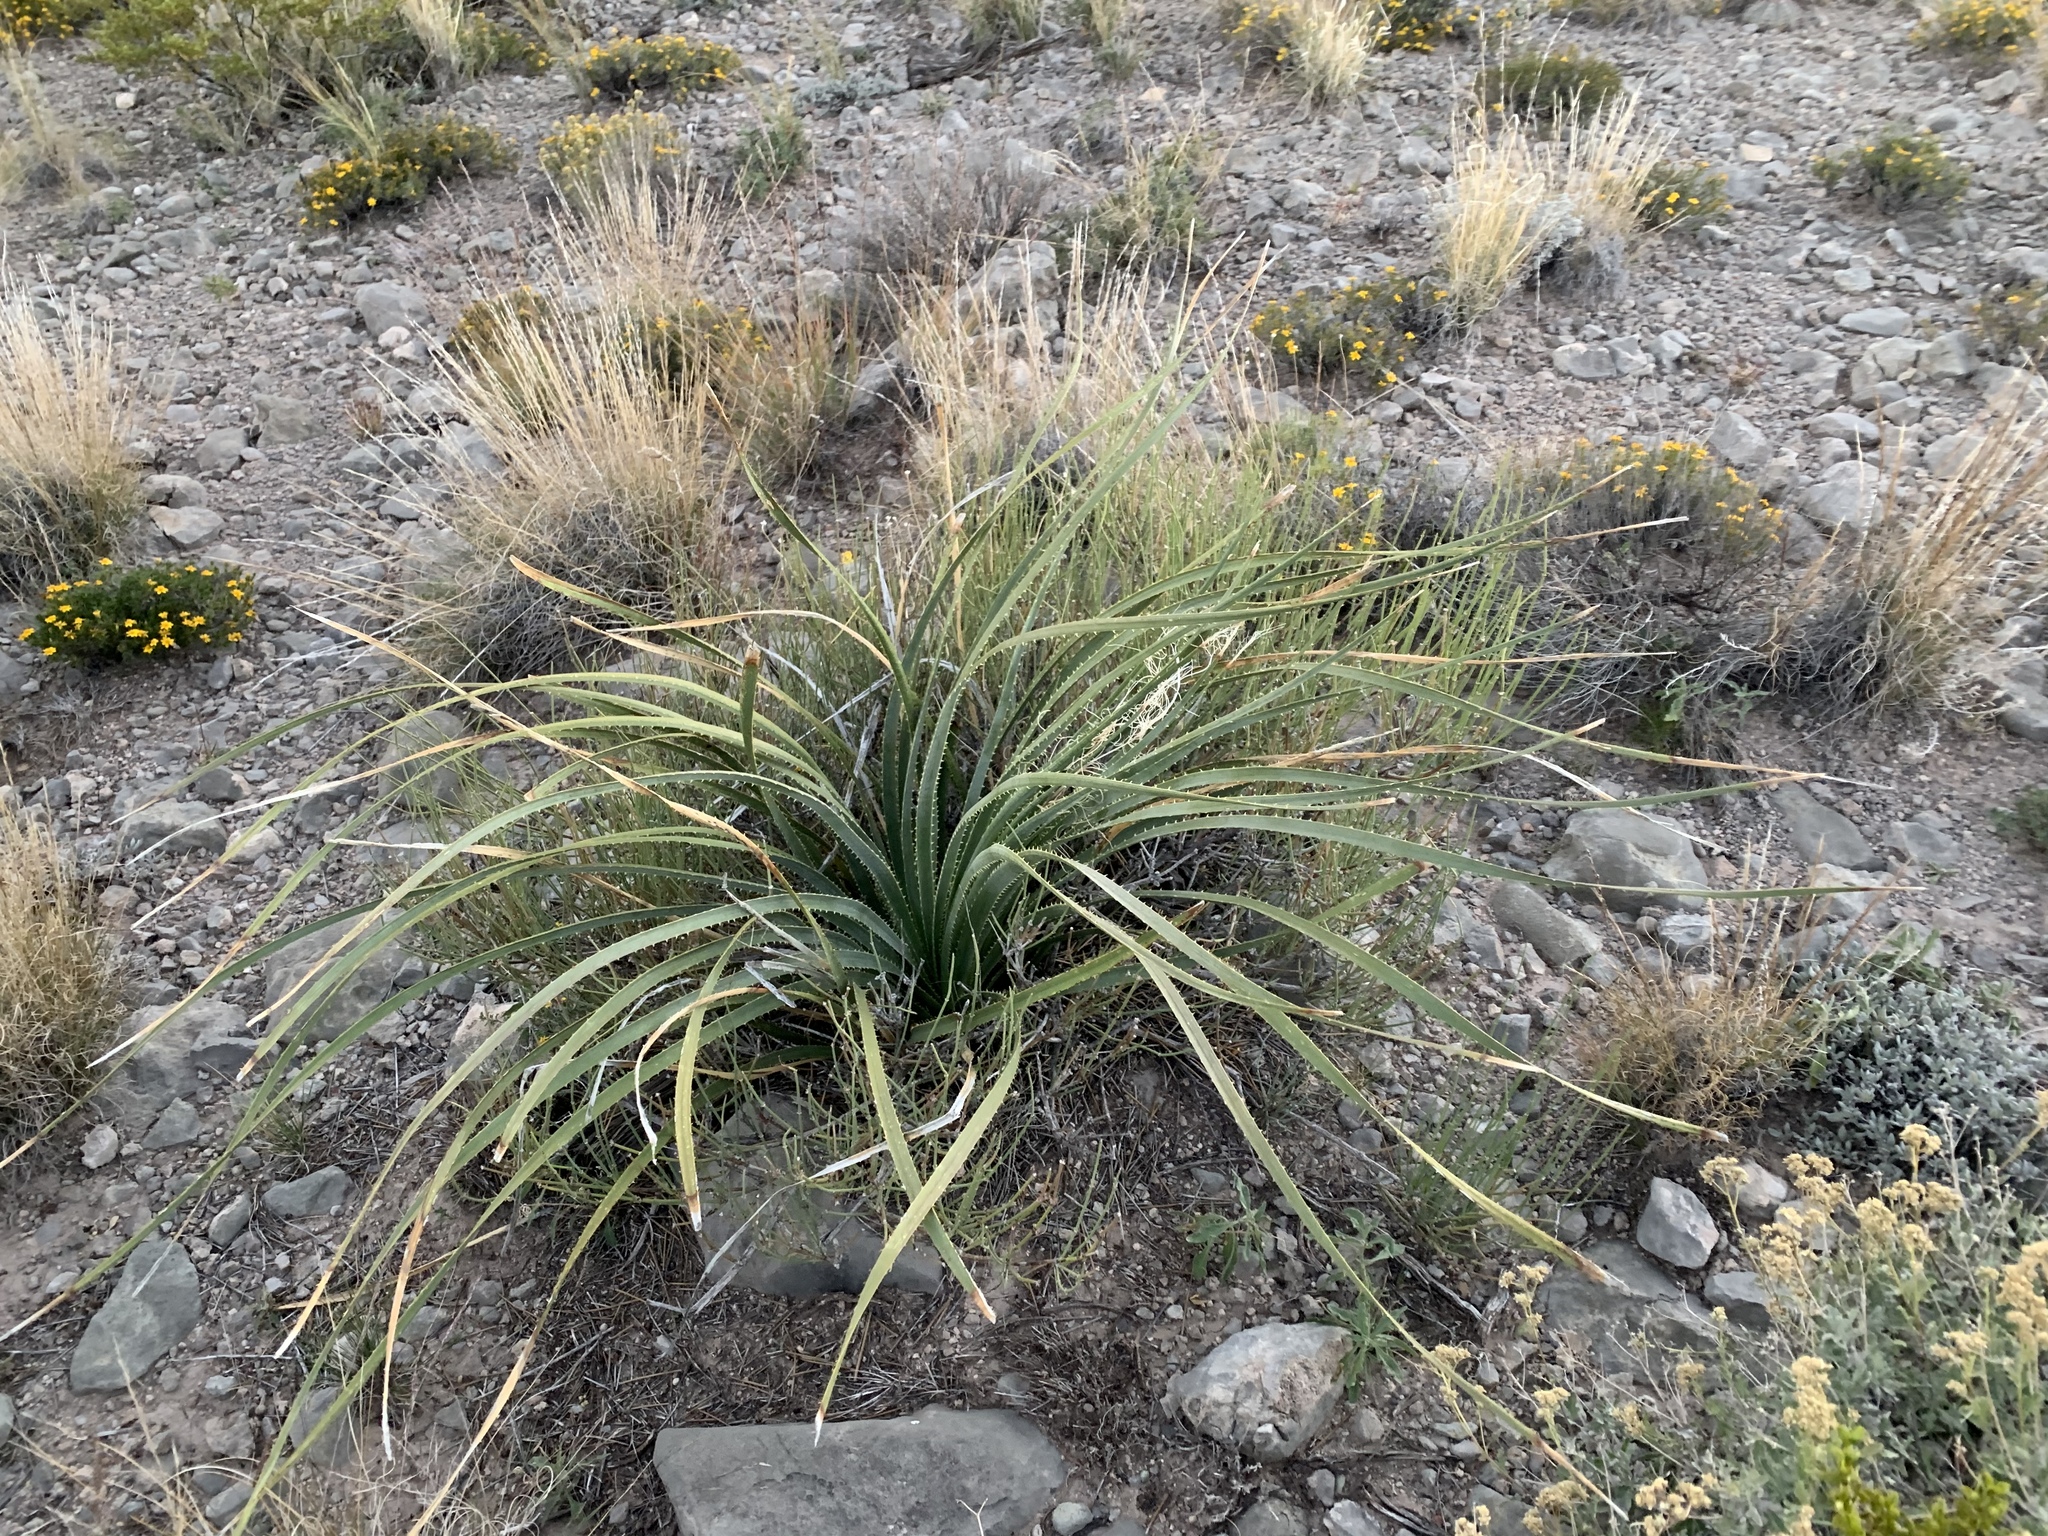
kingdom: Plantae
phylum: Tracheophyta
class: Liliopsida
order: Asparagales
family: Asparagaceae
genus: Dasylirion
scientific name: Dasylirion wheeleri
